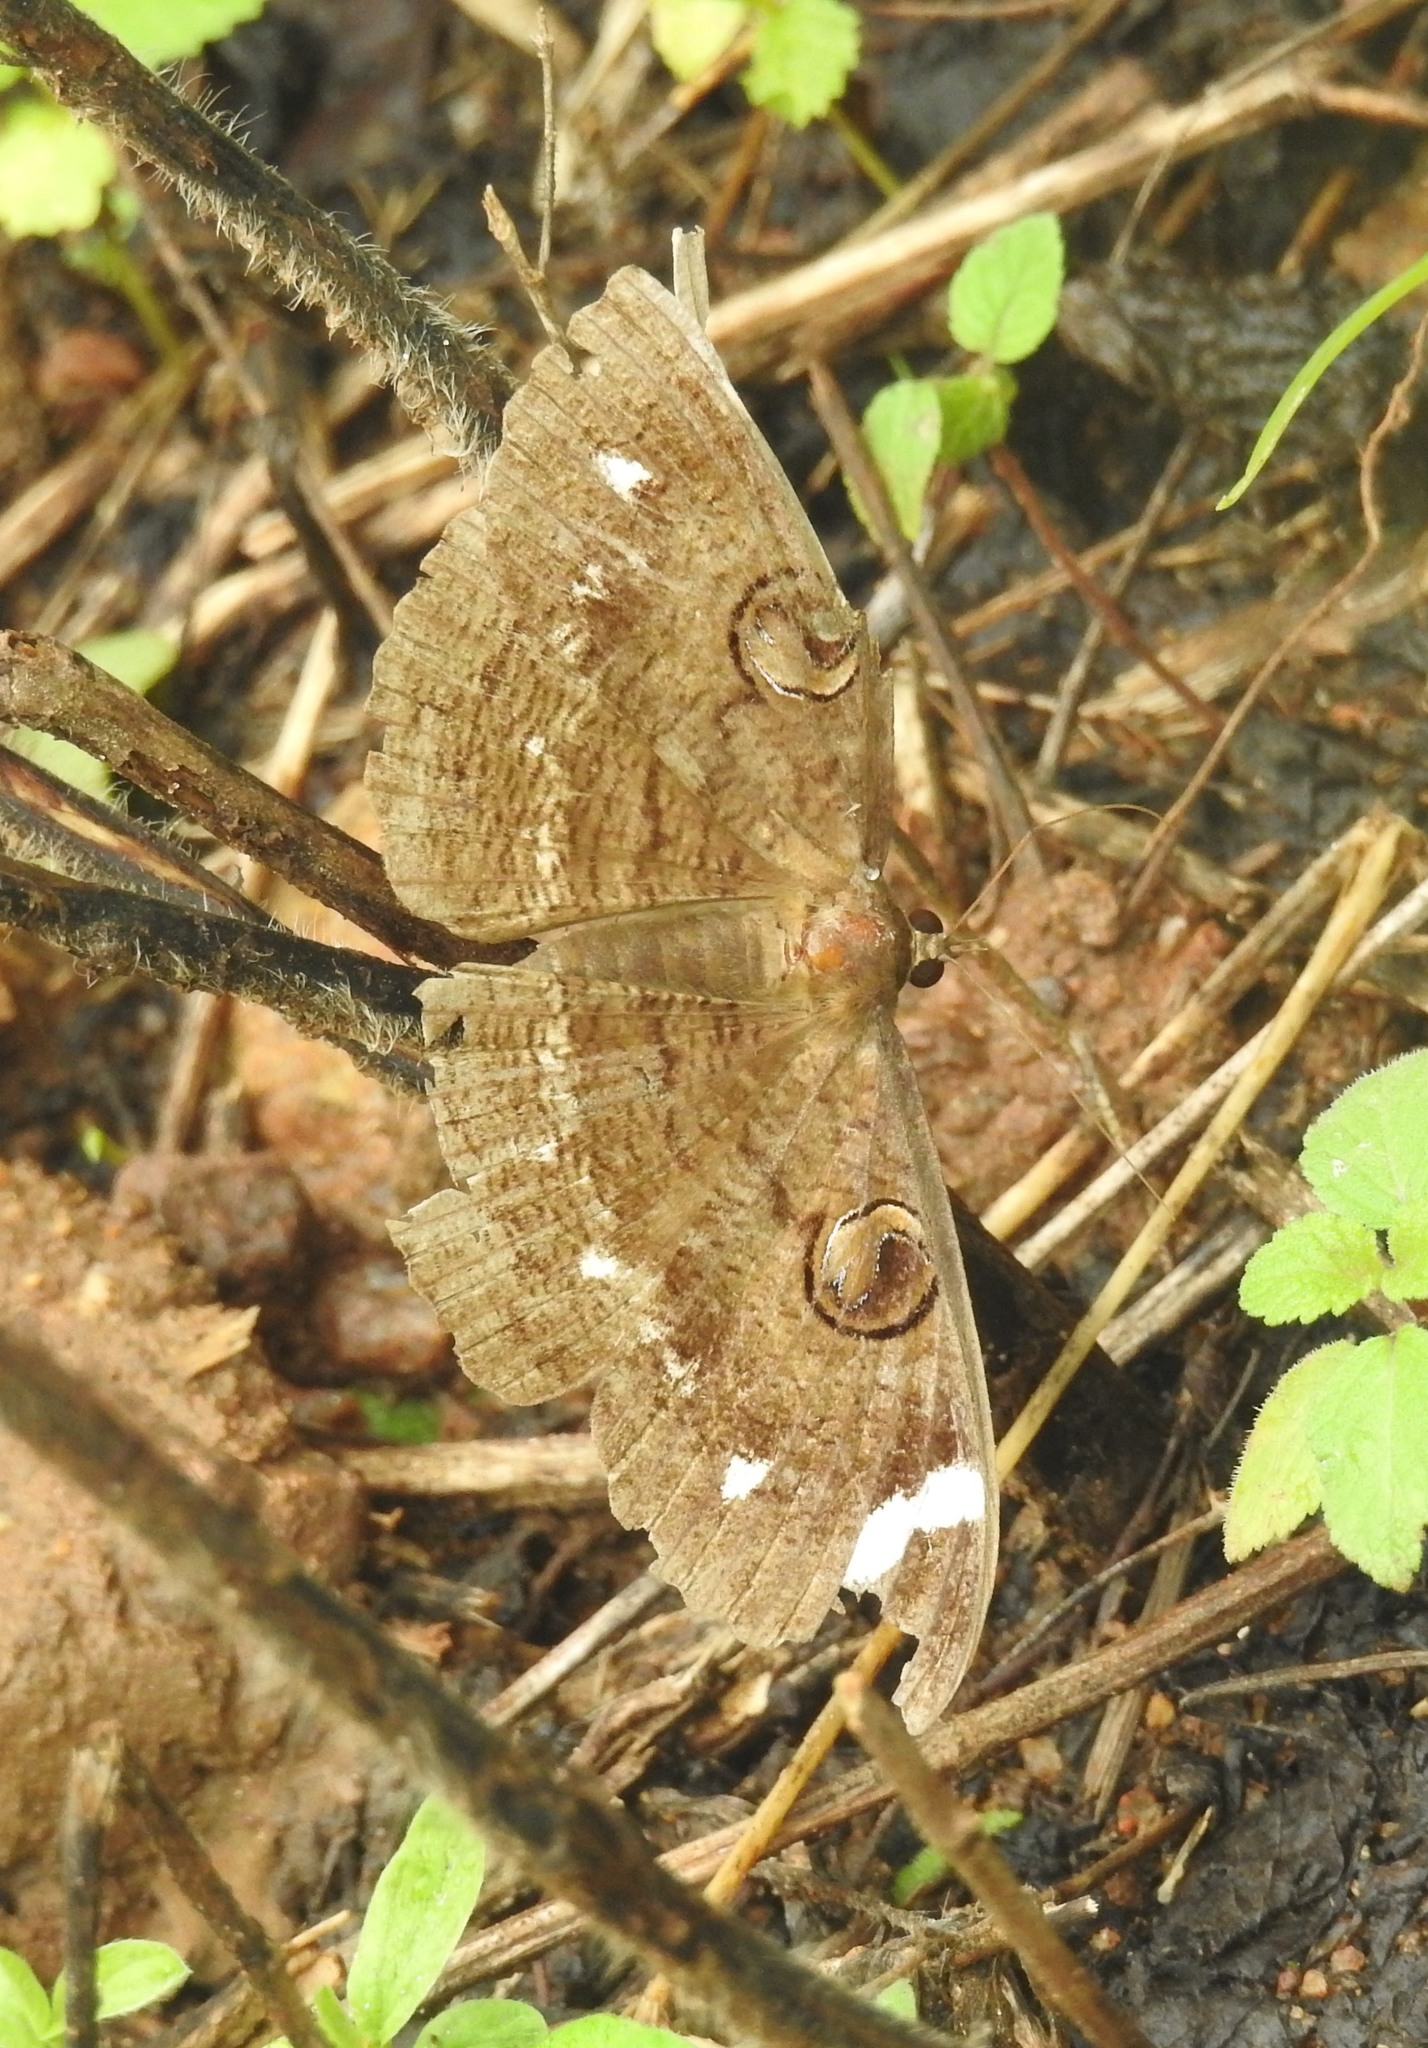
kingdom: Animalia
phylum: Arthropoda
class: Insecta
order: Lepidoptera
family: Erebidae
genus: Erebus
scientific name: Erebus hieroglyphica
